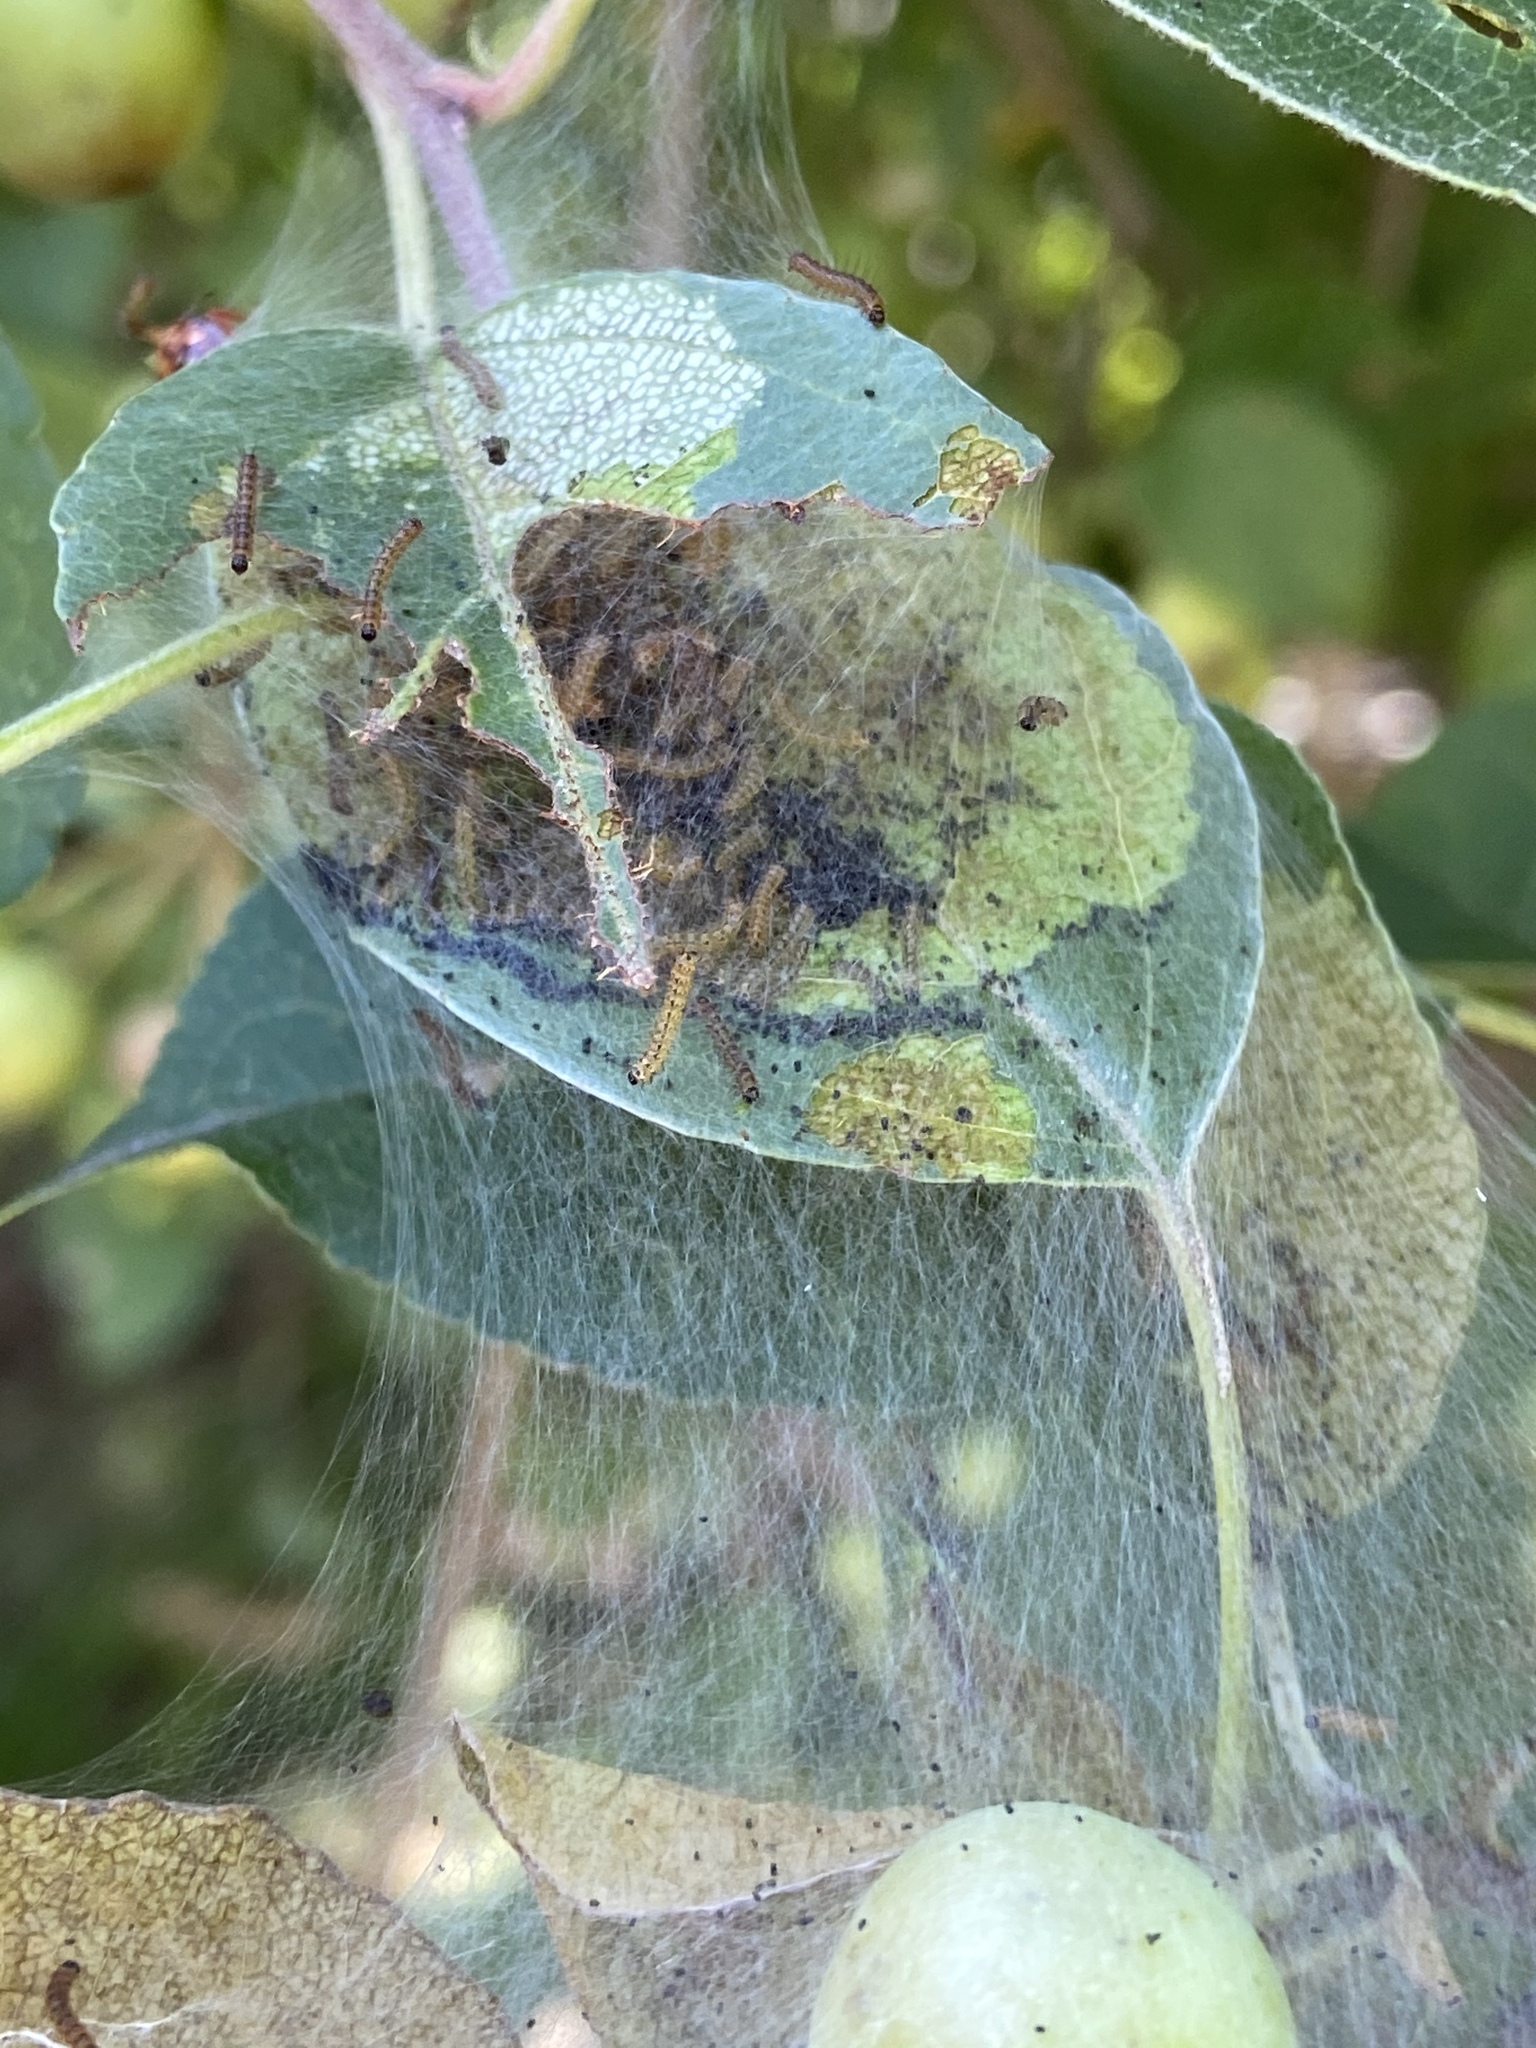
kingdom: Animalia
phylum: Arthropoda
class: Insecta
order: Lepidoptera
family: Crambidae
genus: Saucrobotys
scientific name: Saucrobotys futilalis
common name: Dogbane saucrobotys moth
